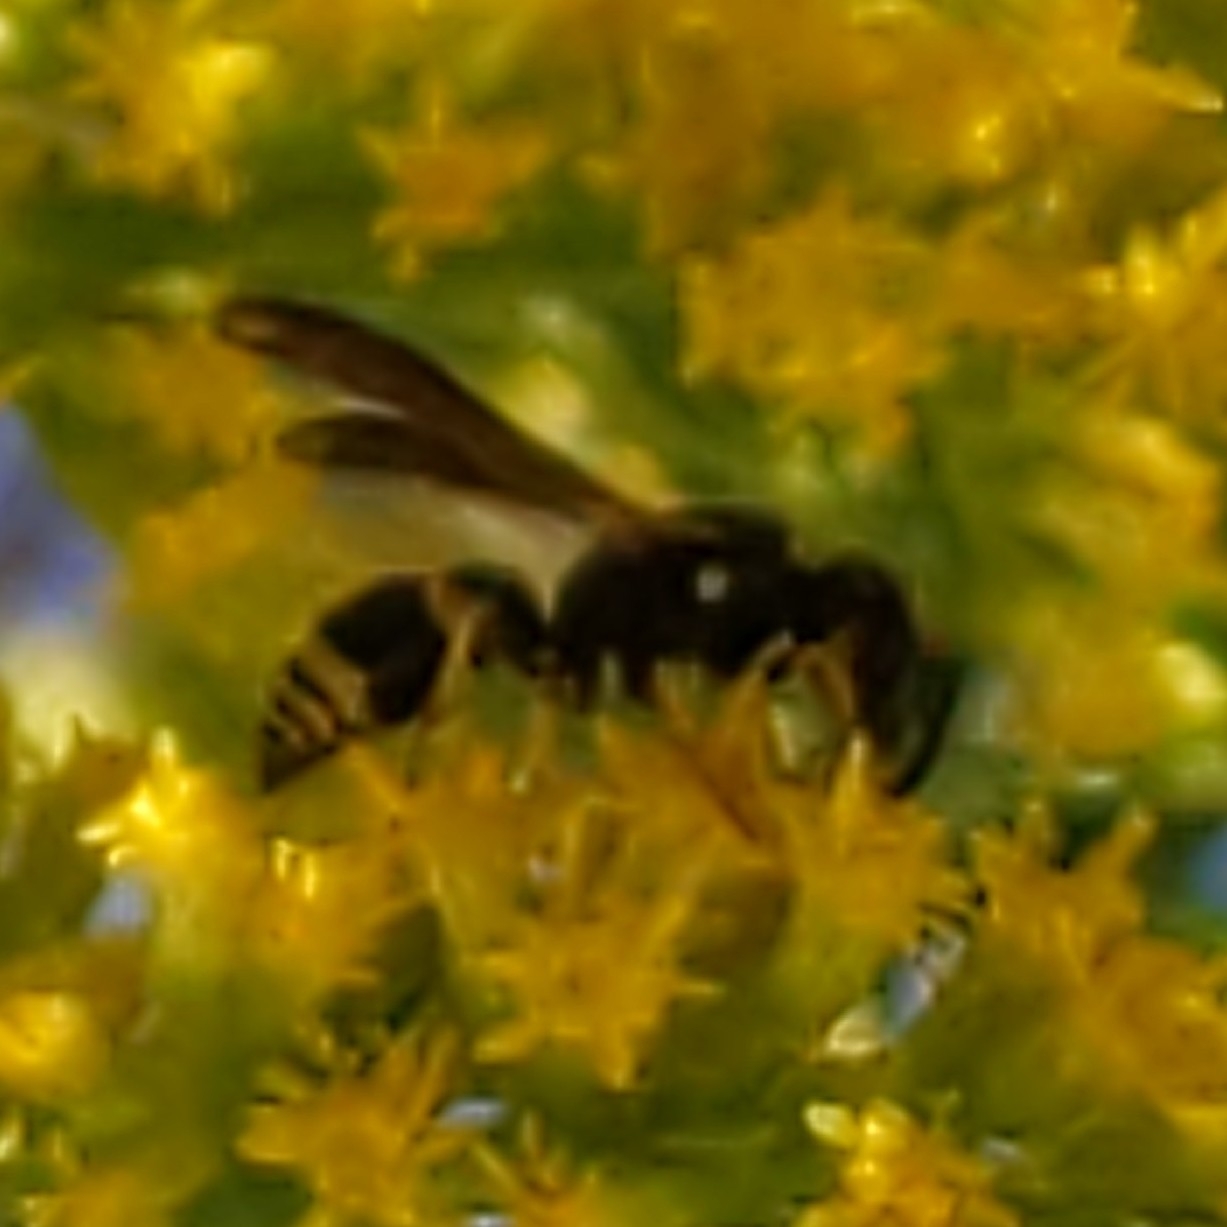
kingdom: Animalia
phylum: Arthropoda
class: Insecta
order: Hymenoptera
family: Vespidae
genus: Ancistrocerus
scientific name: Ancistrocerus
